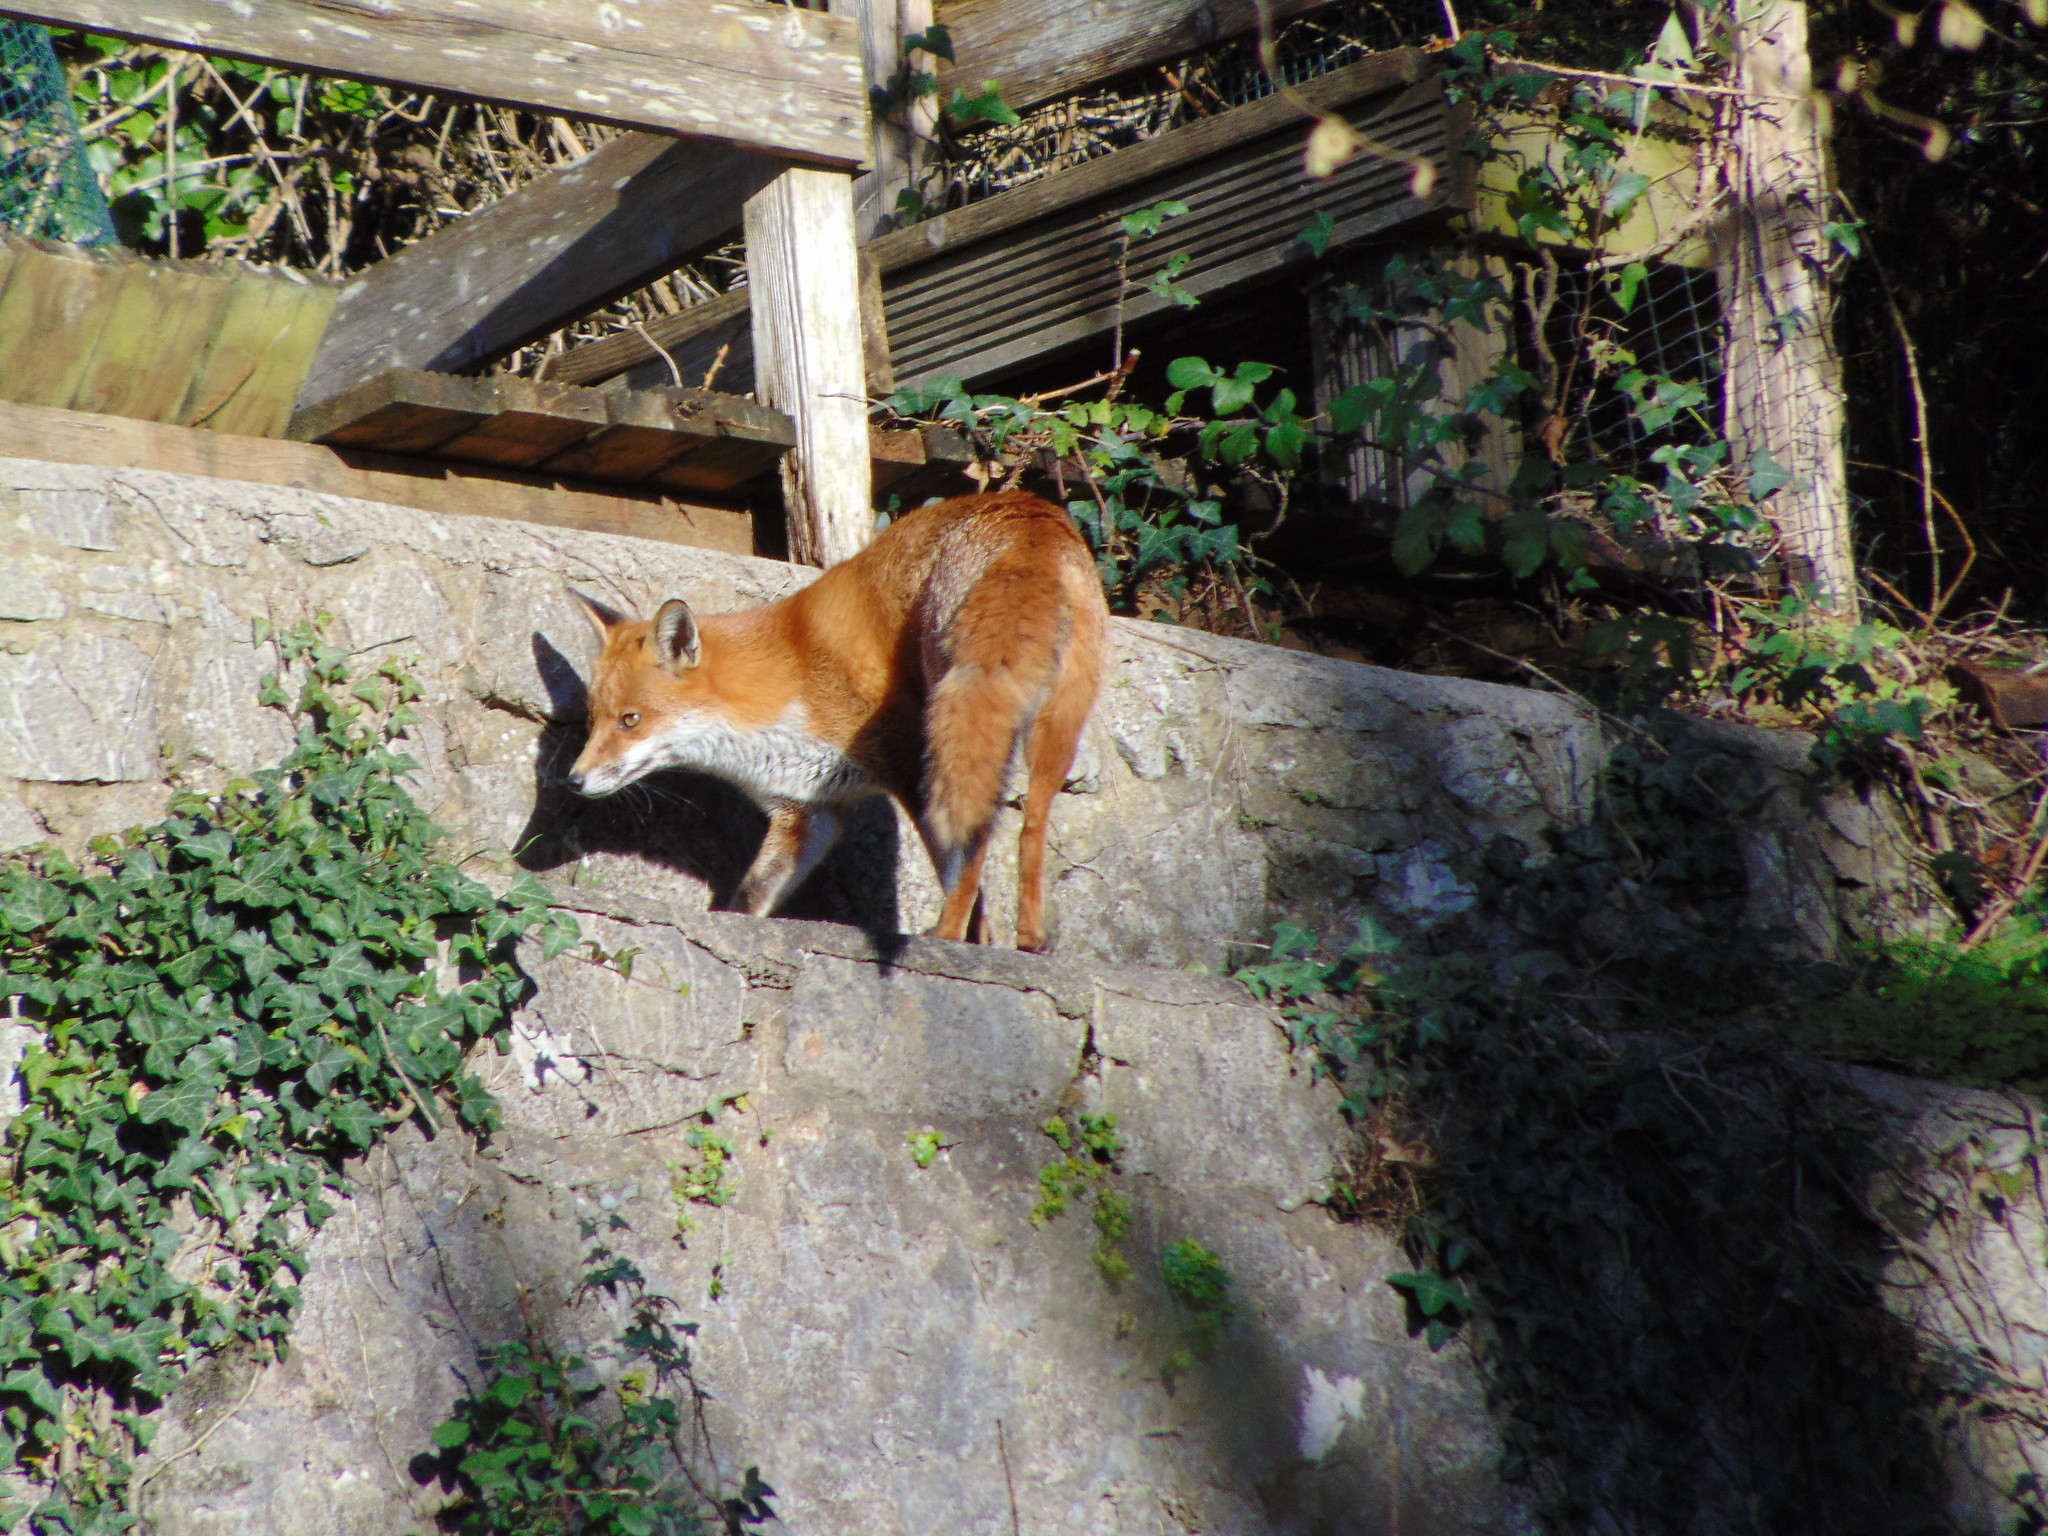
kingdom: Animalia
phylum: Chordata
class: Mammalia
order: Carnivora
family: Canidae
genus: Vulpes
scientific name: Vulpes vulpes
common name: Red fox
